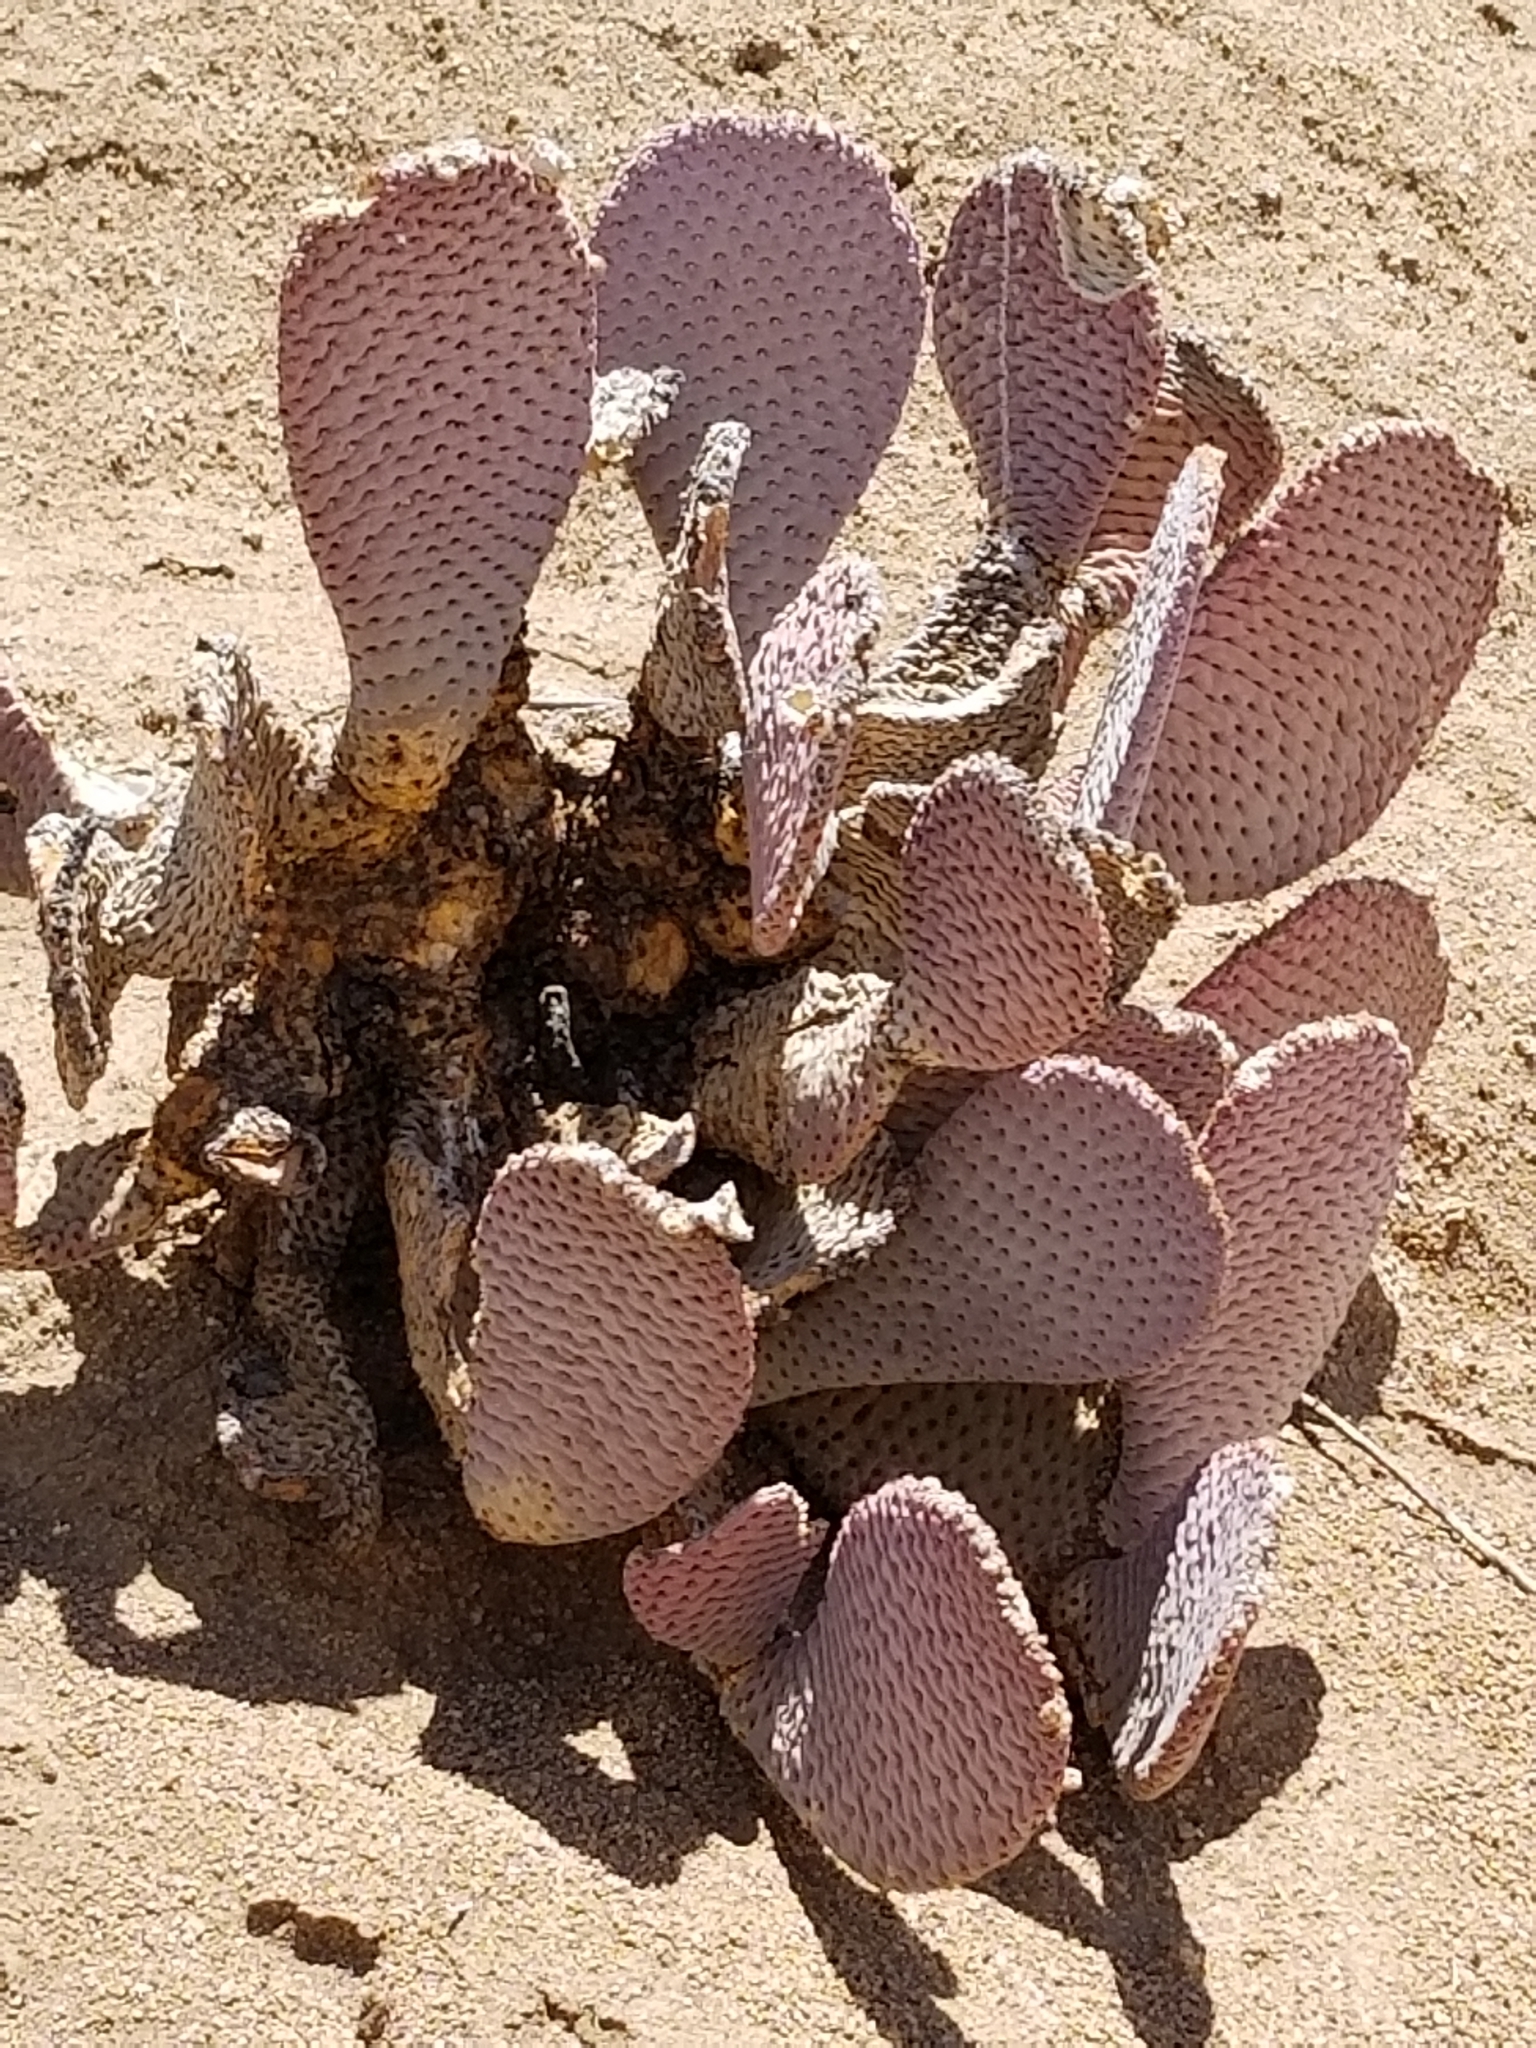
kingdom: Plantae
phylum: Tracheophyta
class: Magnoliopsida
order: Caryophyllales
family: Cactaceae
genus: Opuntia
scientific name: Opuntia basilaris
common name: Beavertail prickly-pear
